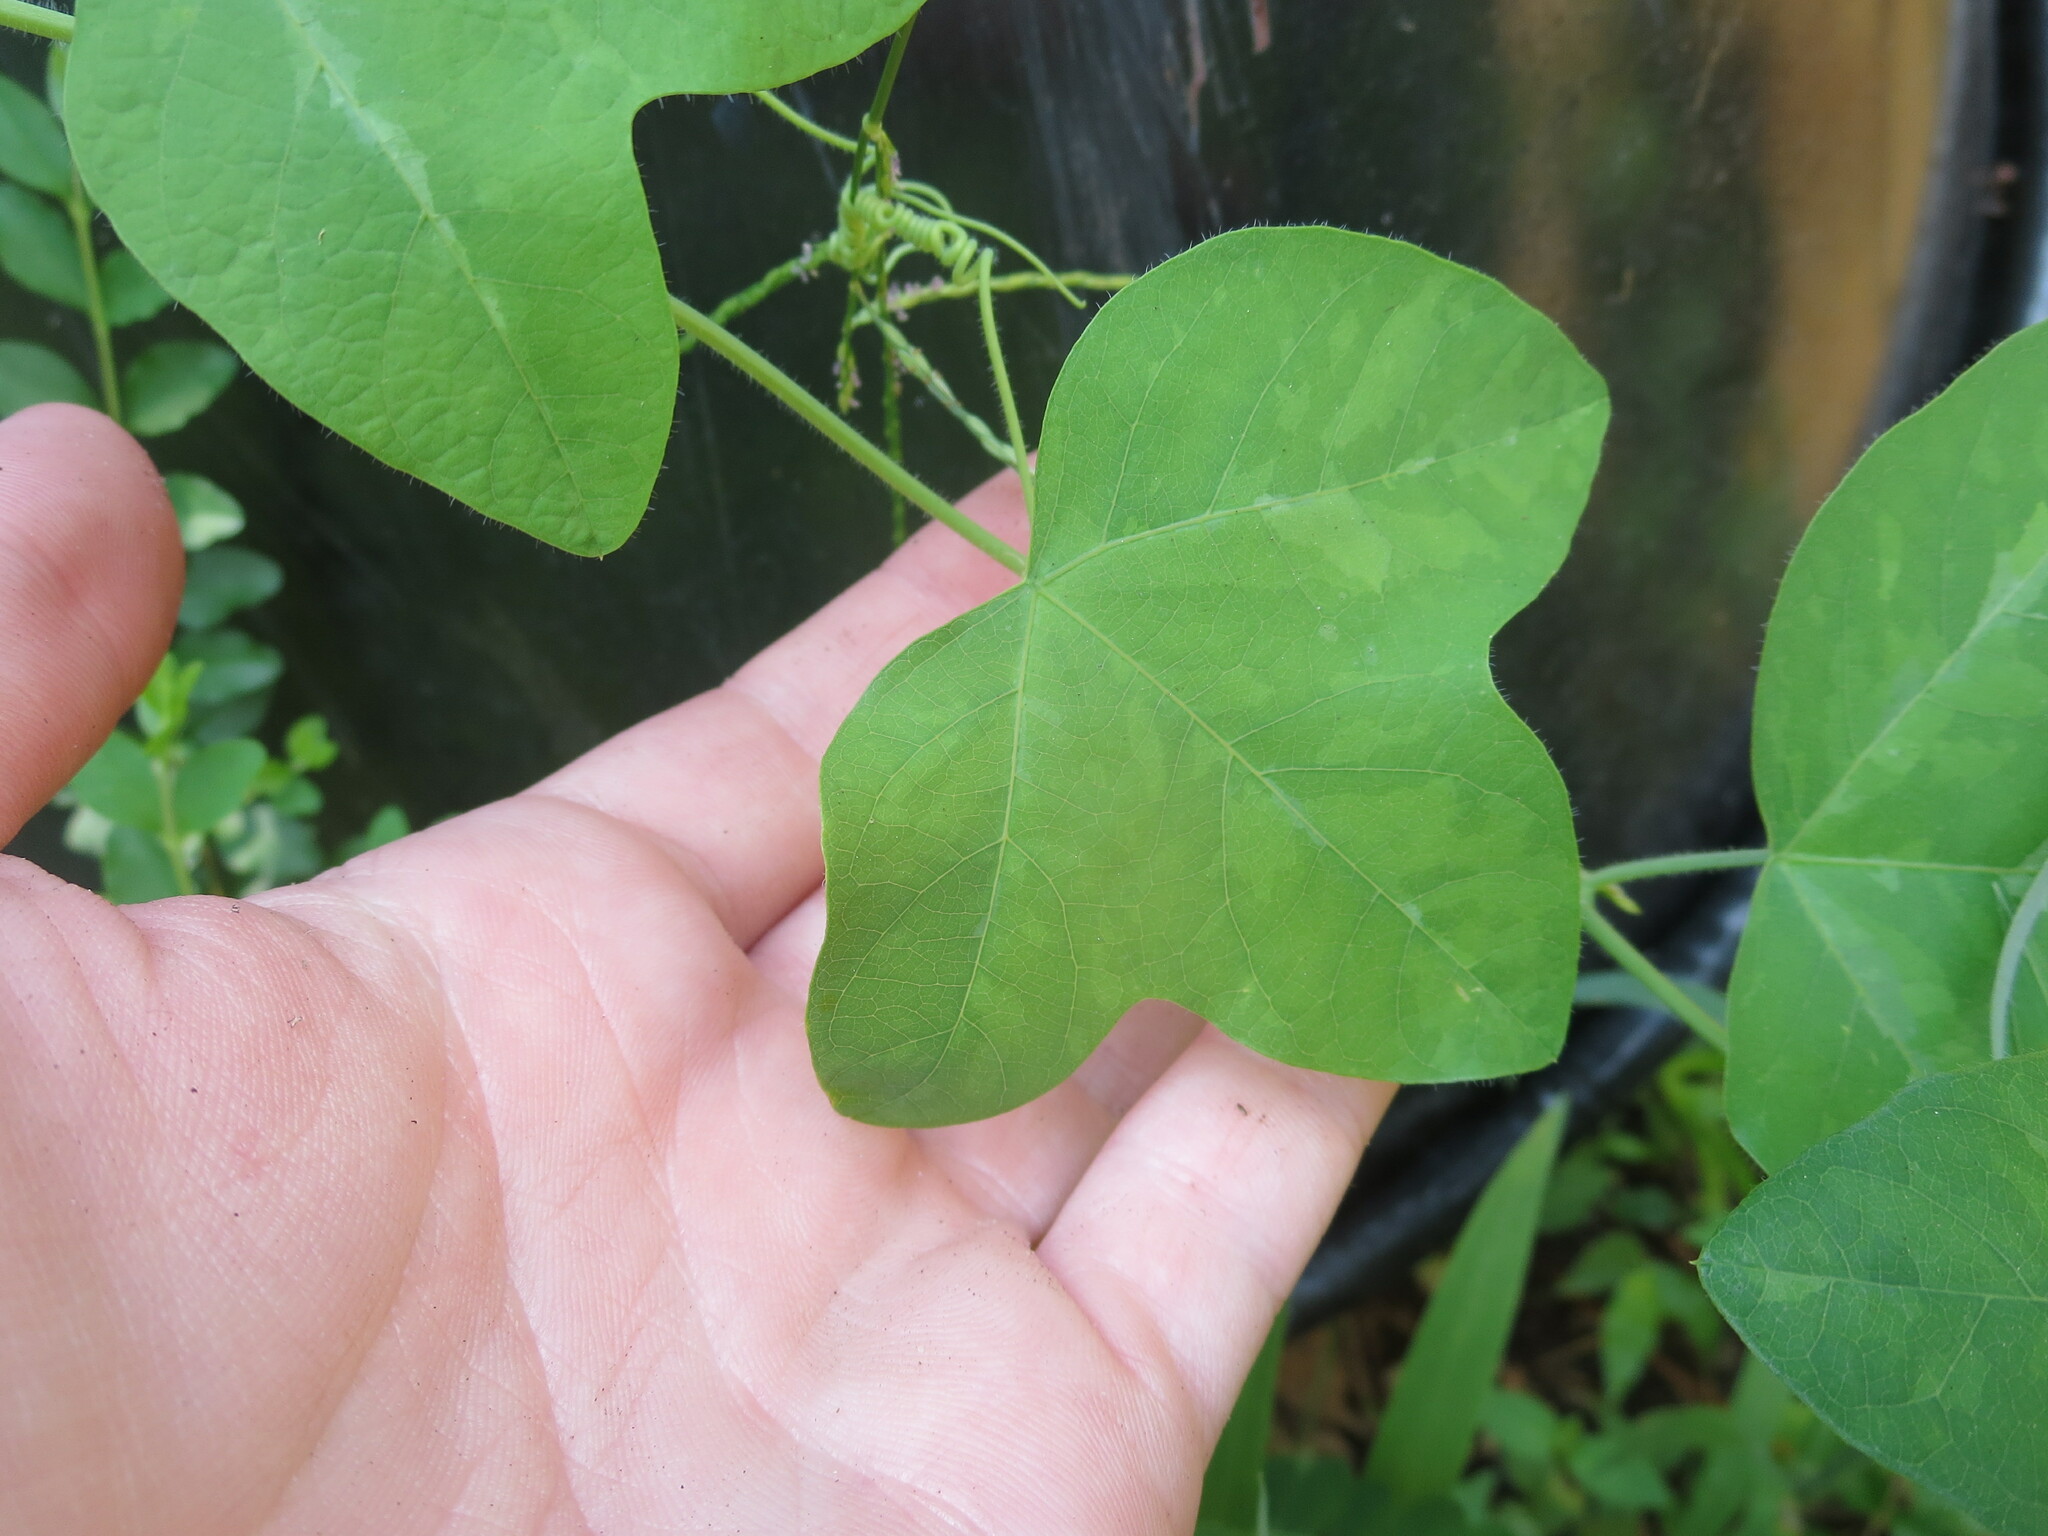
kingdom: Plantae
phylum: Tracheophyta
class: Magnoliopsida
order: Malpighiales
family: Passifloraceae
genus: Passiflora
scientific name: Passiflora lutea
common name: Yellow passionflower
